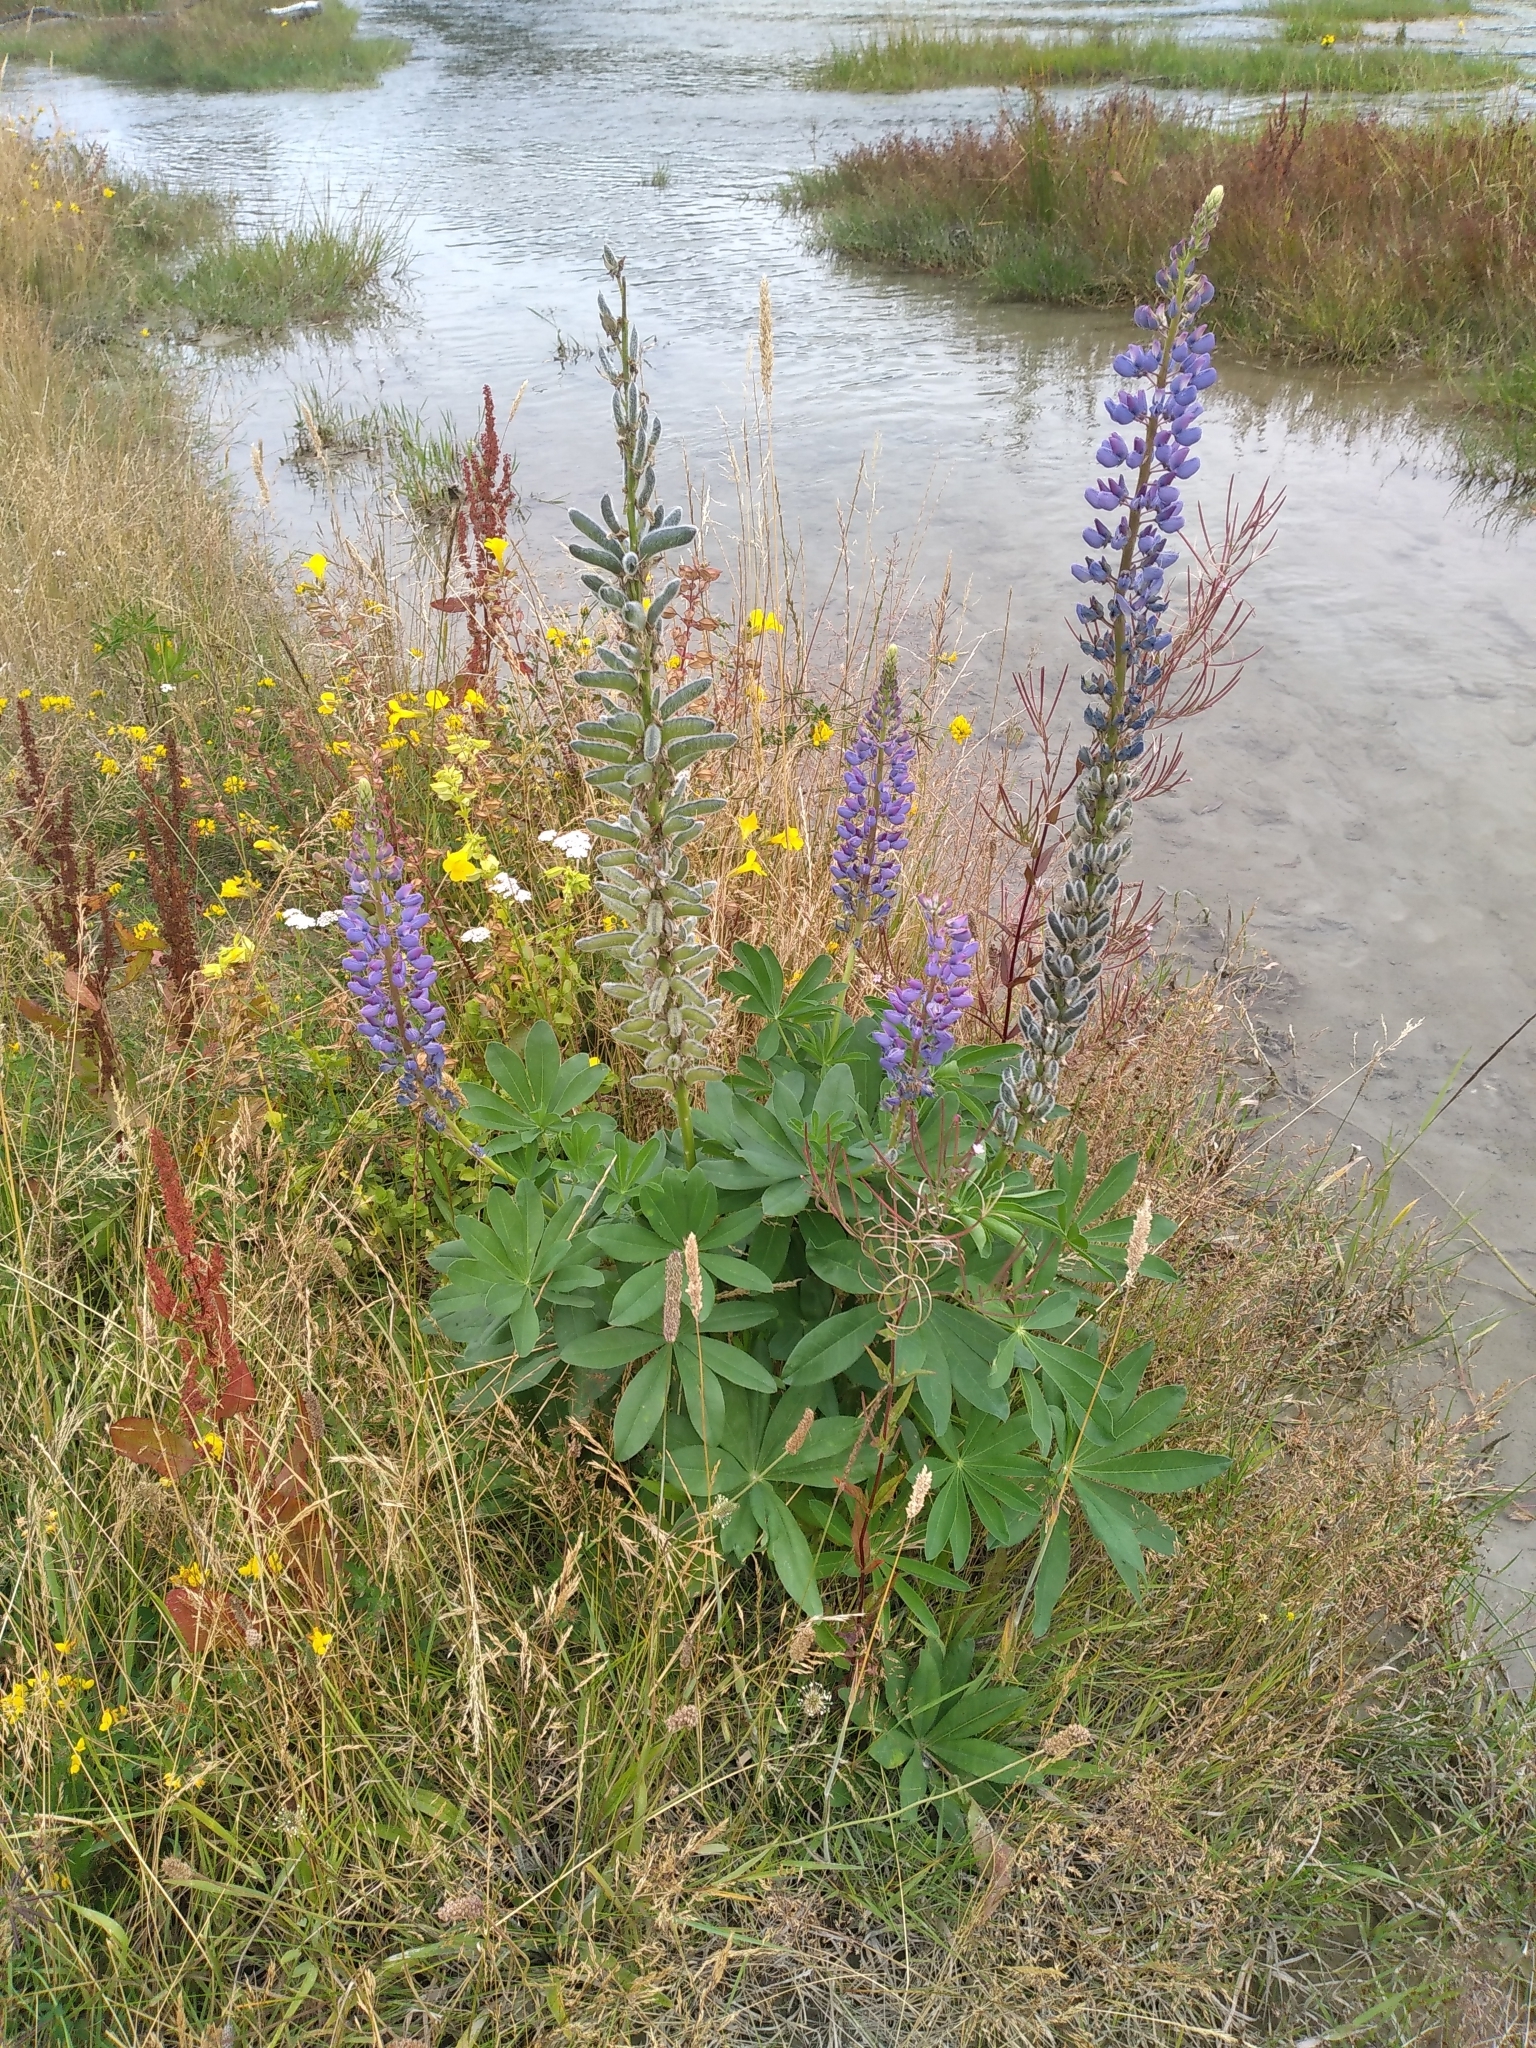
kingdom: Plantae
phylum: Tracheophyta
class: Magnoliopsida
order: Fabales
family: Fabaceae
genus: Lupinus
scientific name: Lupinus polyphyllus
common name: Garden lupin
